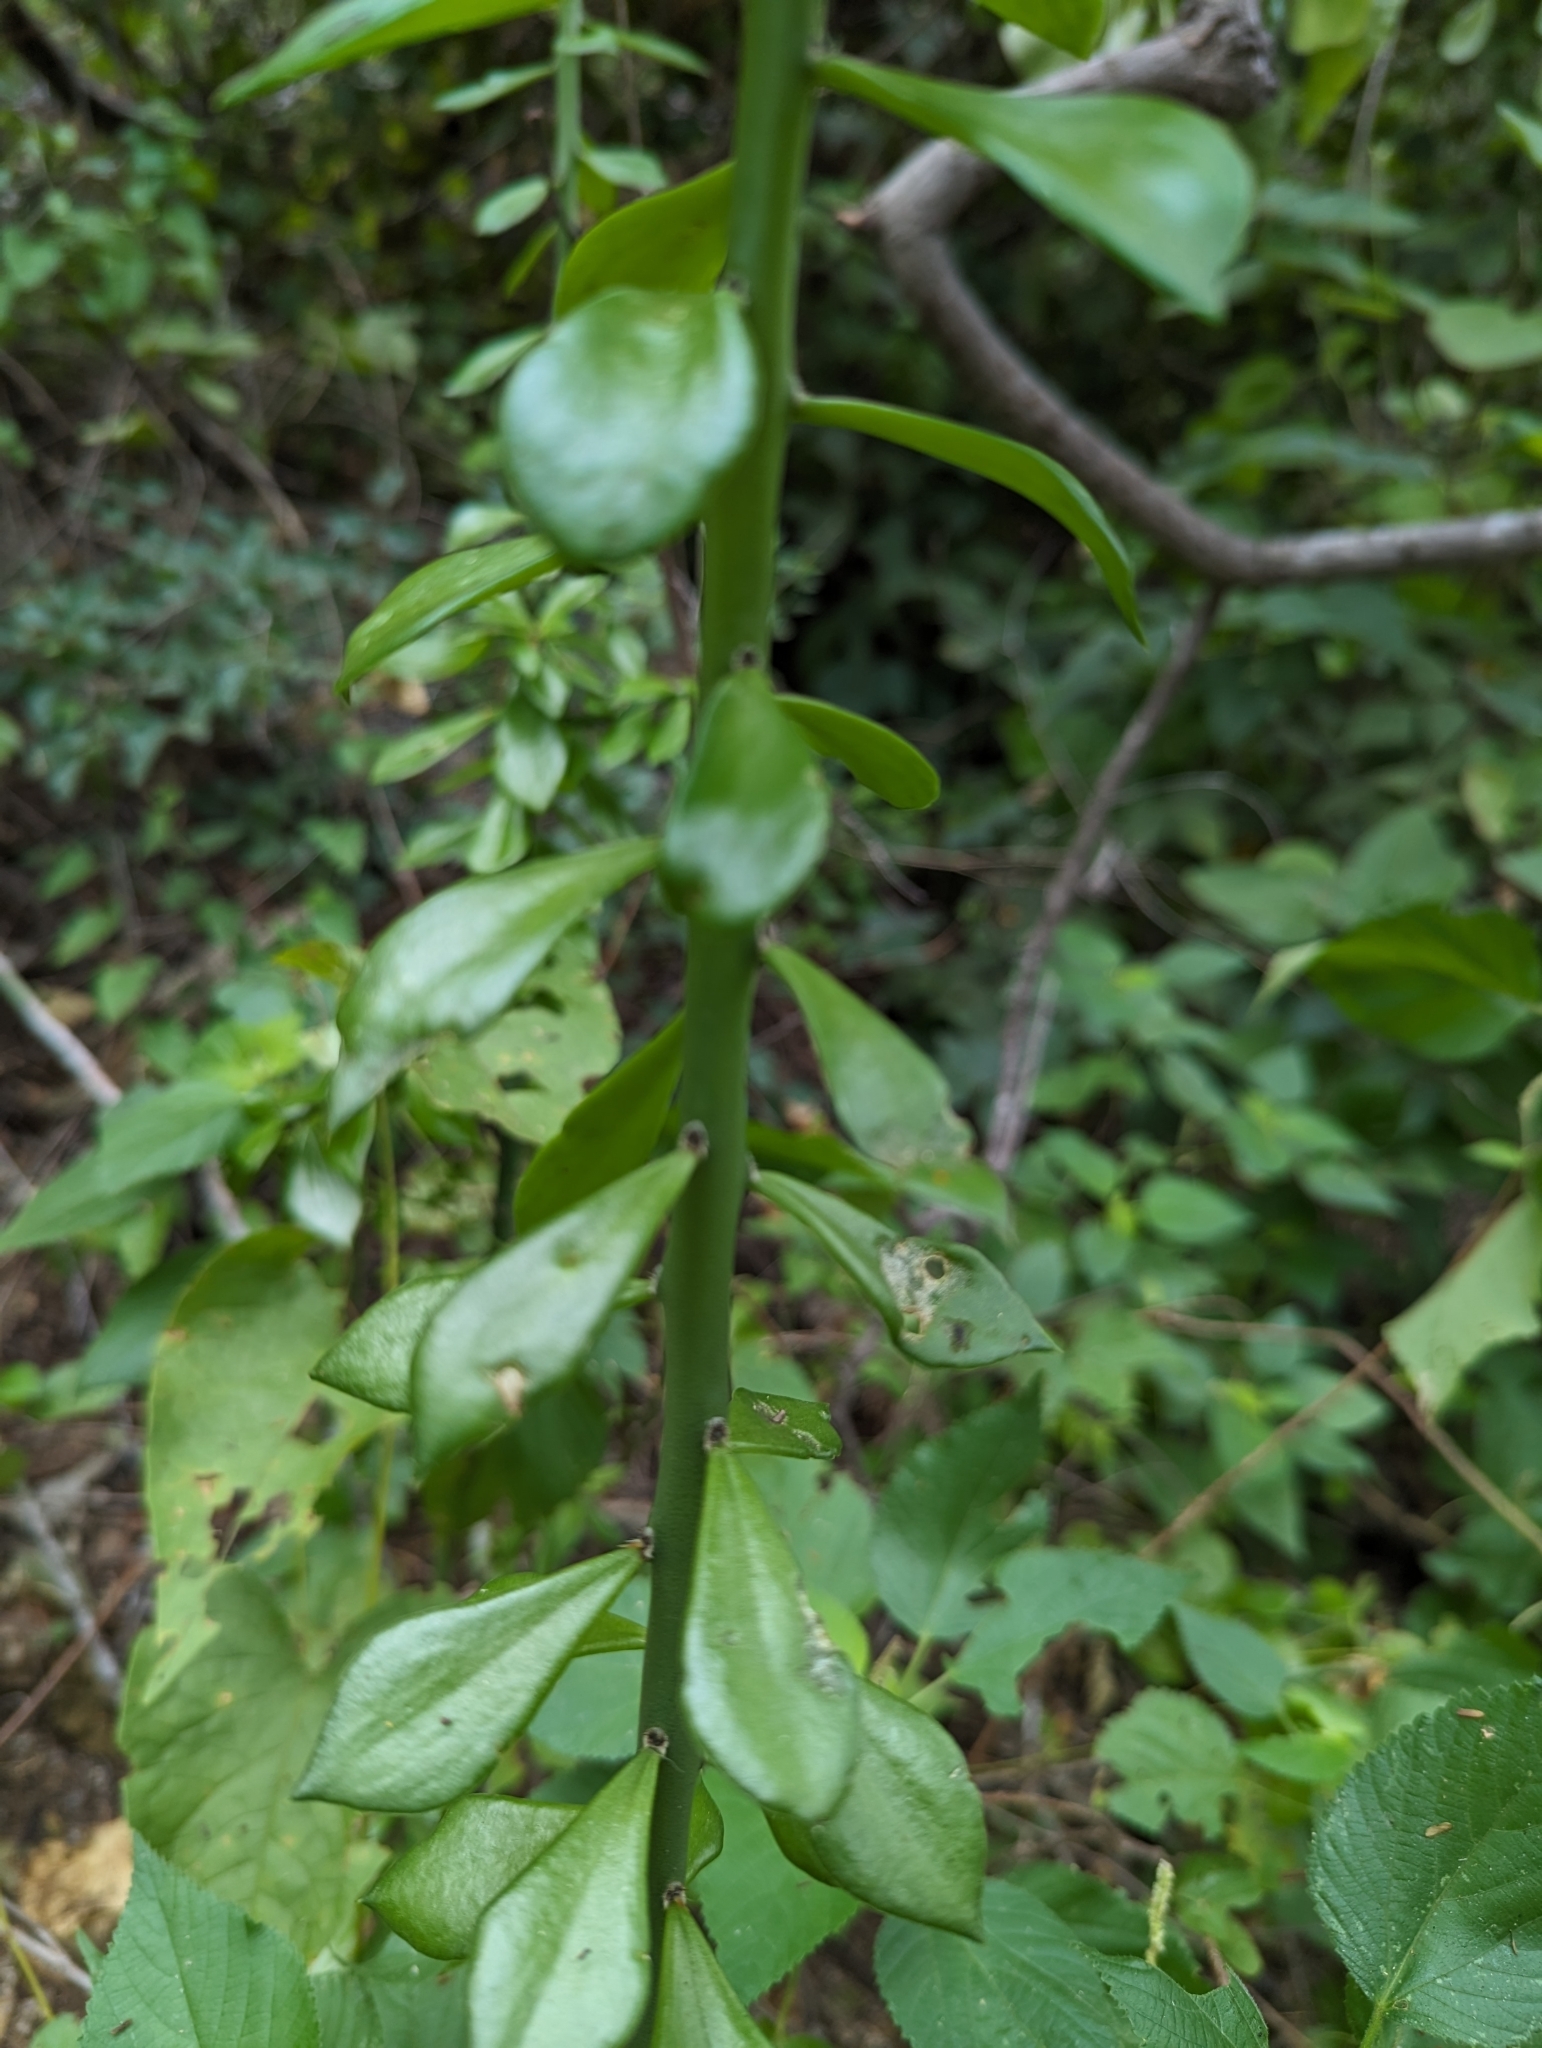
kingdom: Plantae
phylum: Tracheophyta
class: Magnoliopsida
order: Caryophyllales
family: Cactaceae
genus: Pereskiopsis
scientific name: Pereskiopsis porteri
